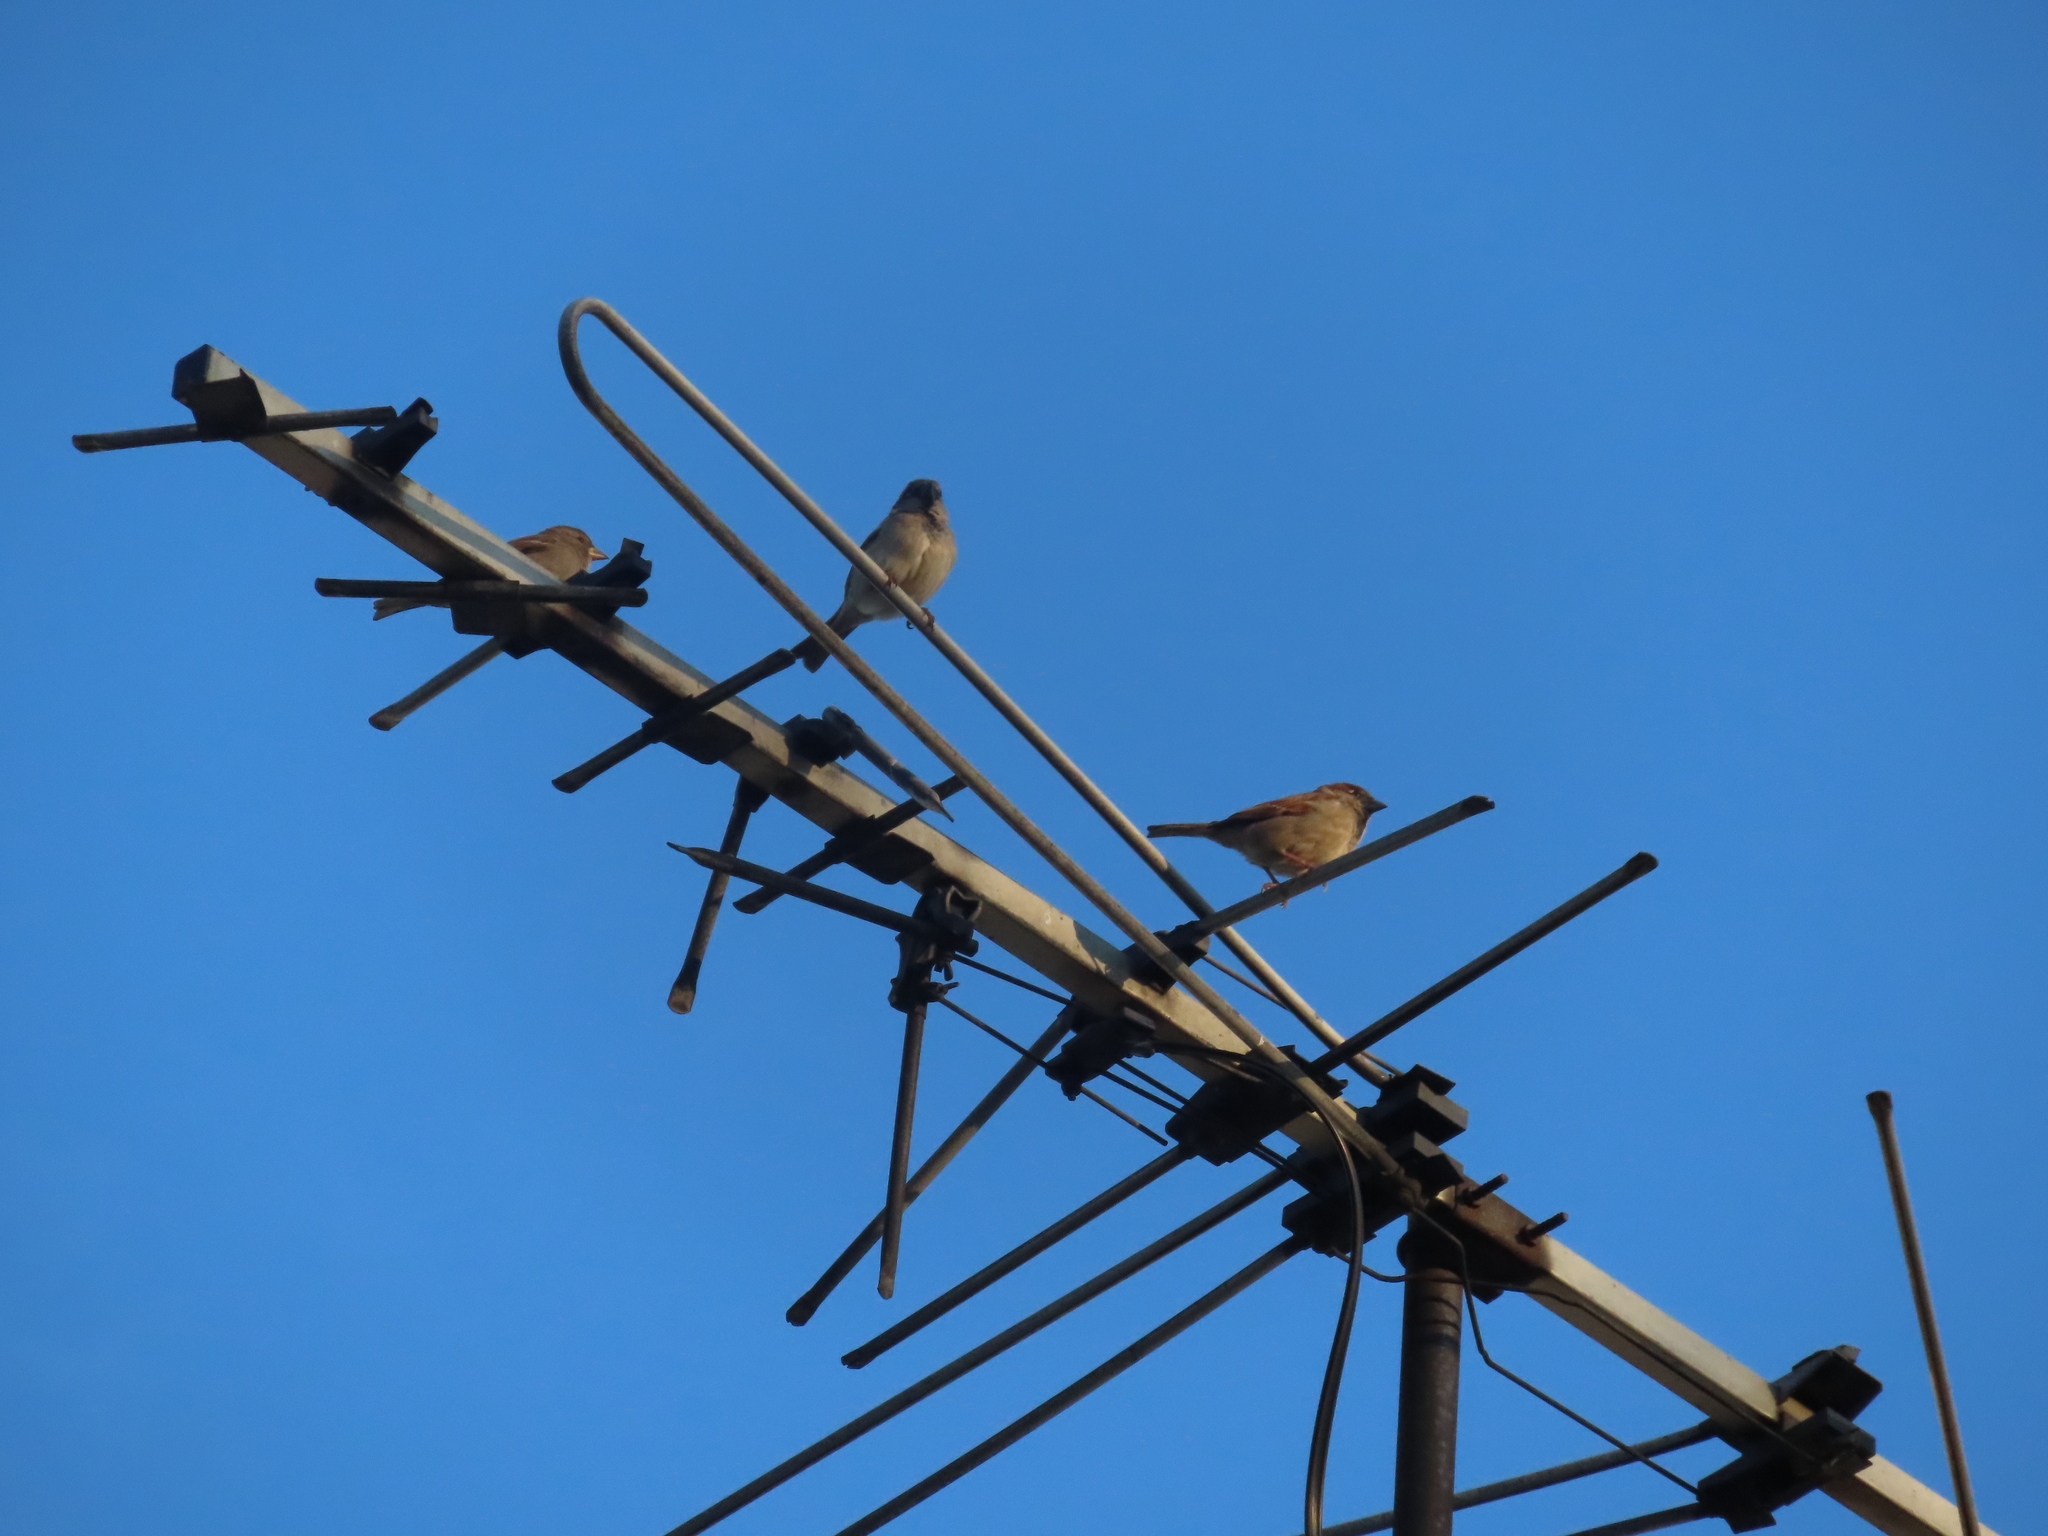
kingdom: Animalia
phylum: Chordata
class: Aves
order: Passeriformes
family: Passeridae
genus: Passer
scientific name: Passer domesticus
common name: House sparrow
